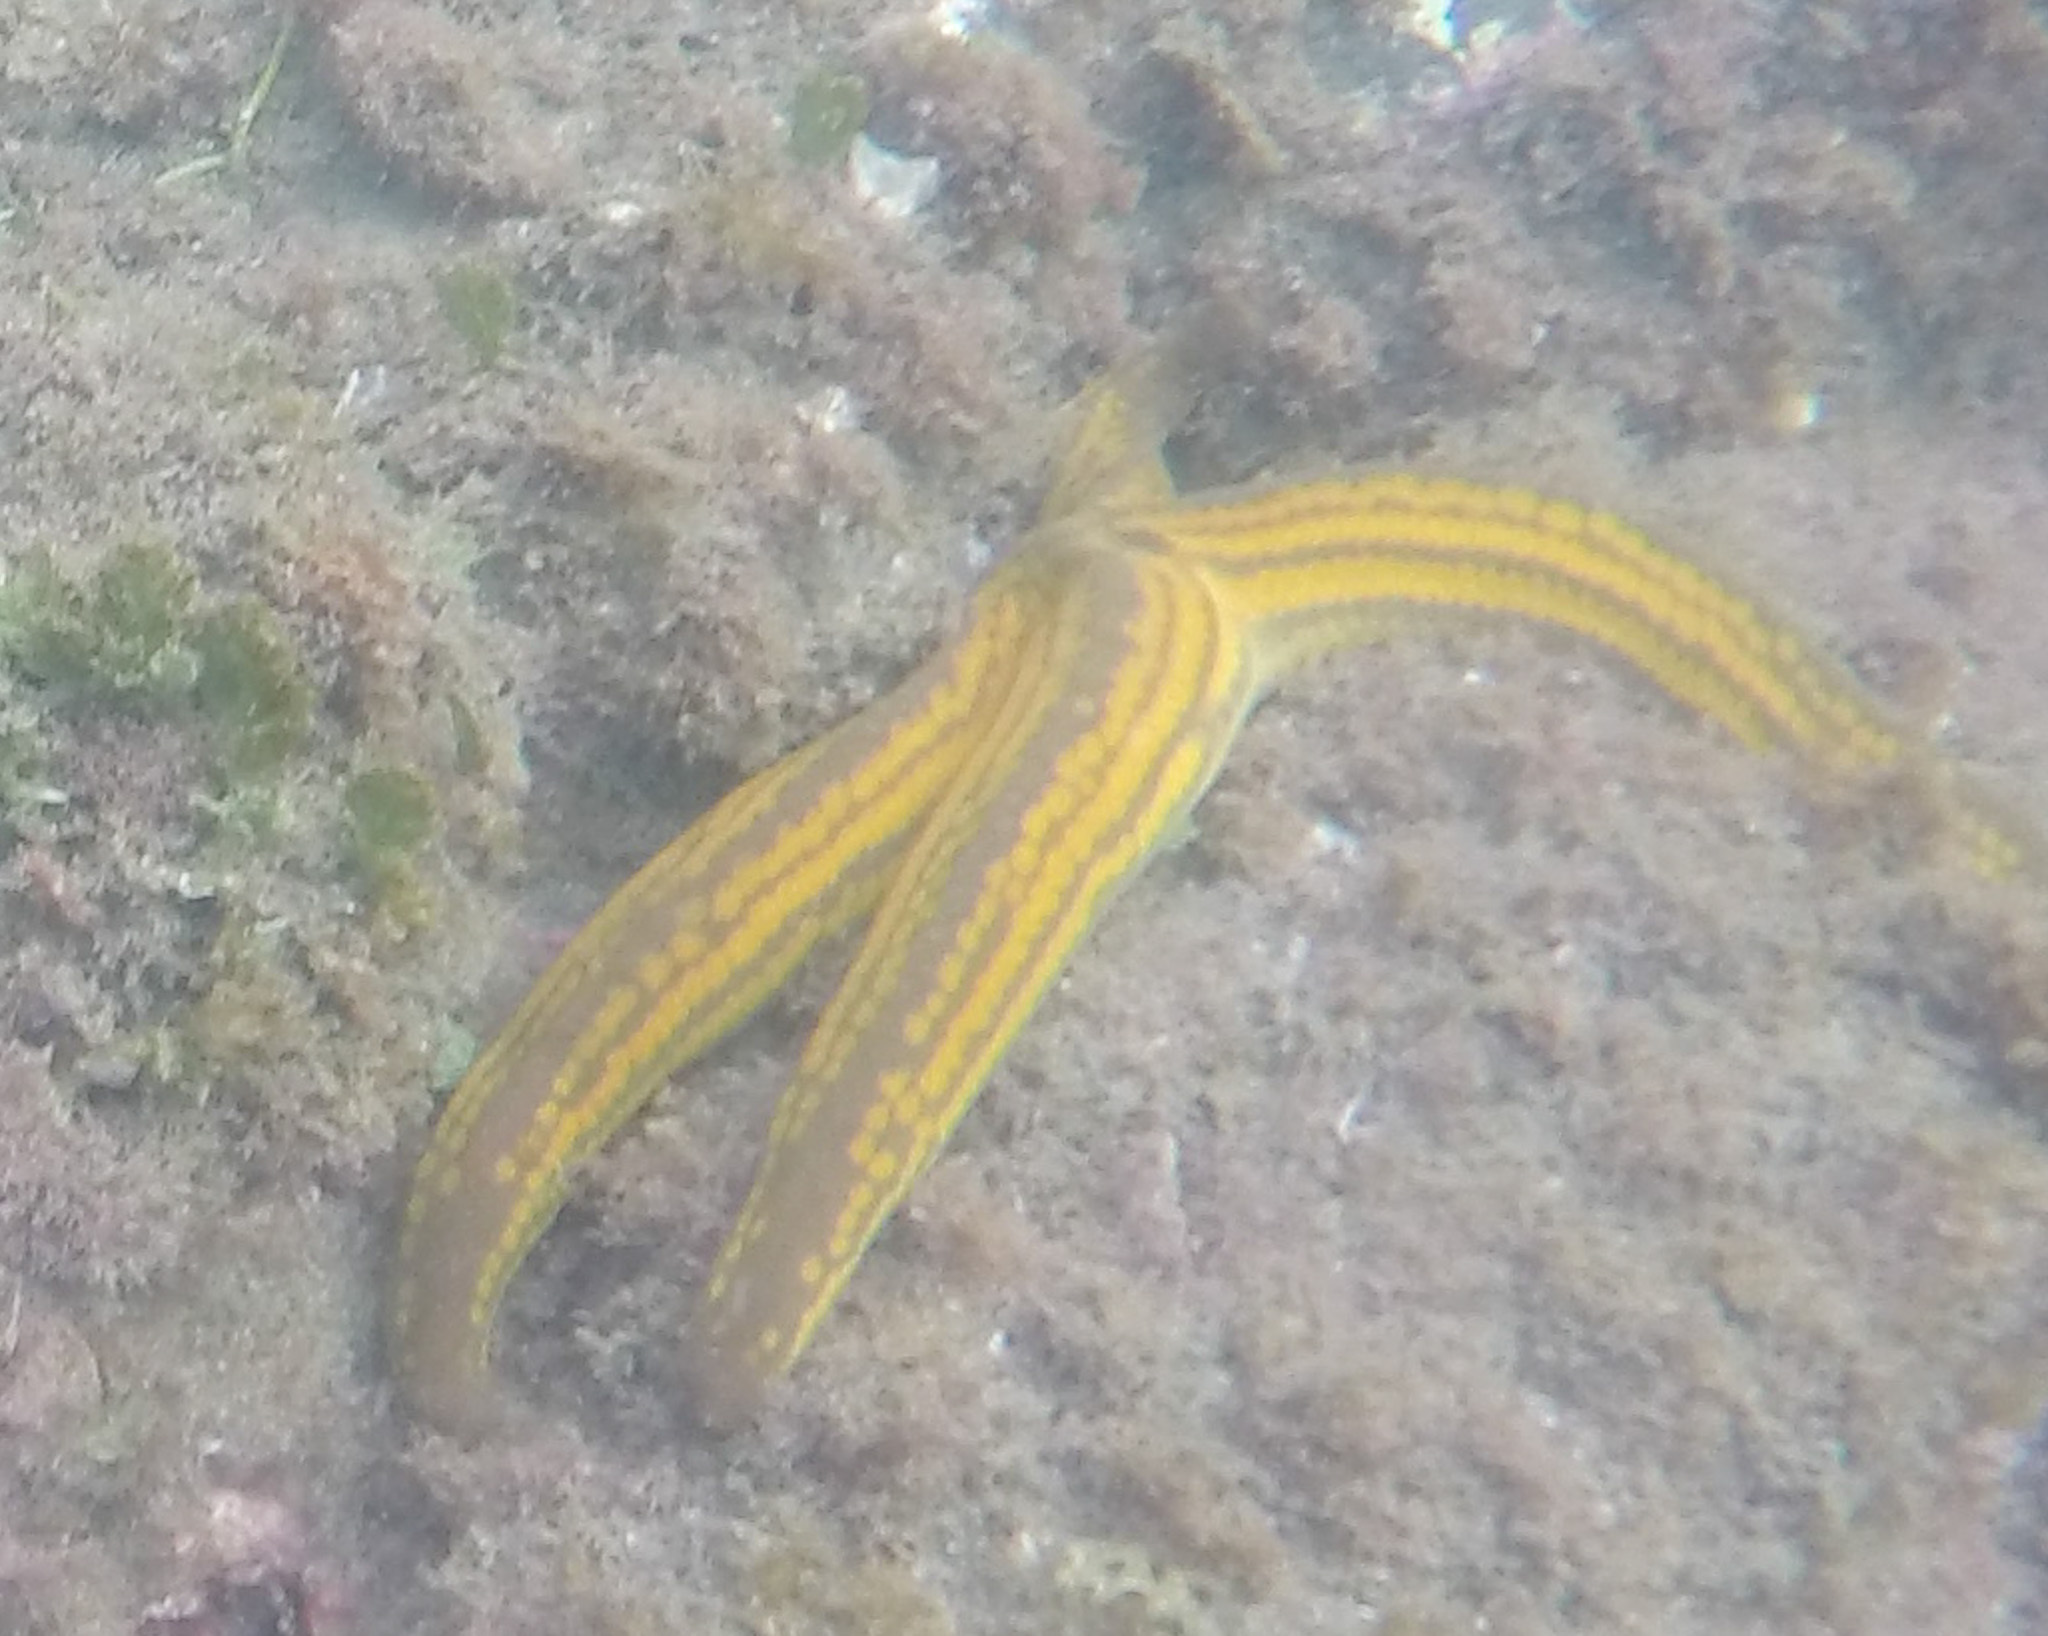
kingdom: Animalia
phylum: Echinodermata
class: Asteroidea
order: Valvatida
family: Ophidiasteridae
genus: Pharia
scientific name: Pharia pyramidata
